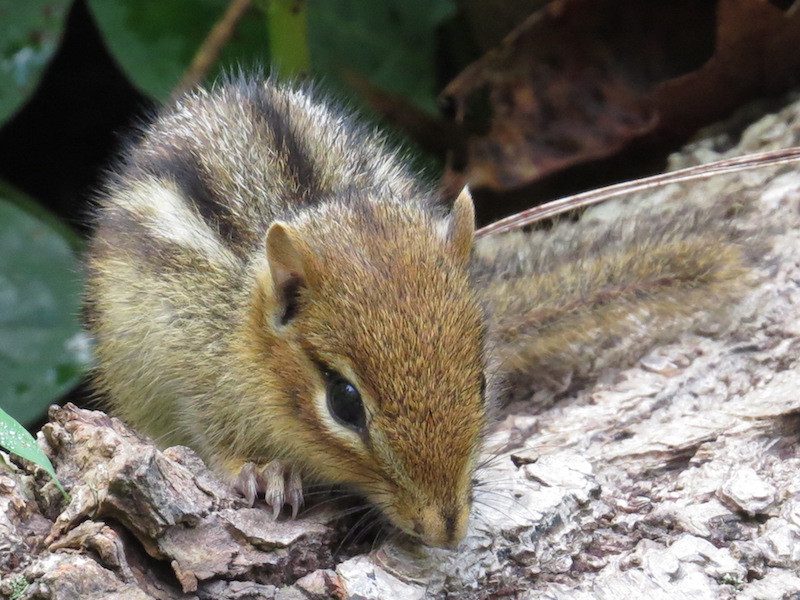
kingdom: Animalia
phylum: Chordata
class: Mammalia
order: Rodentia
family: Sciuridae
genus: Tamias
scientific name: Tamias striatus
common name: Eastern chipmunk
